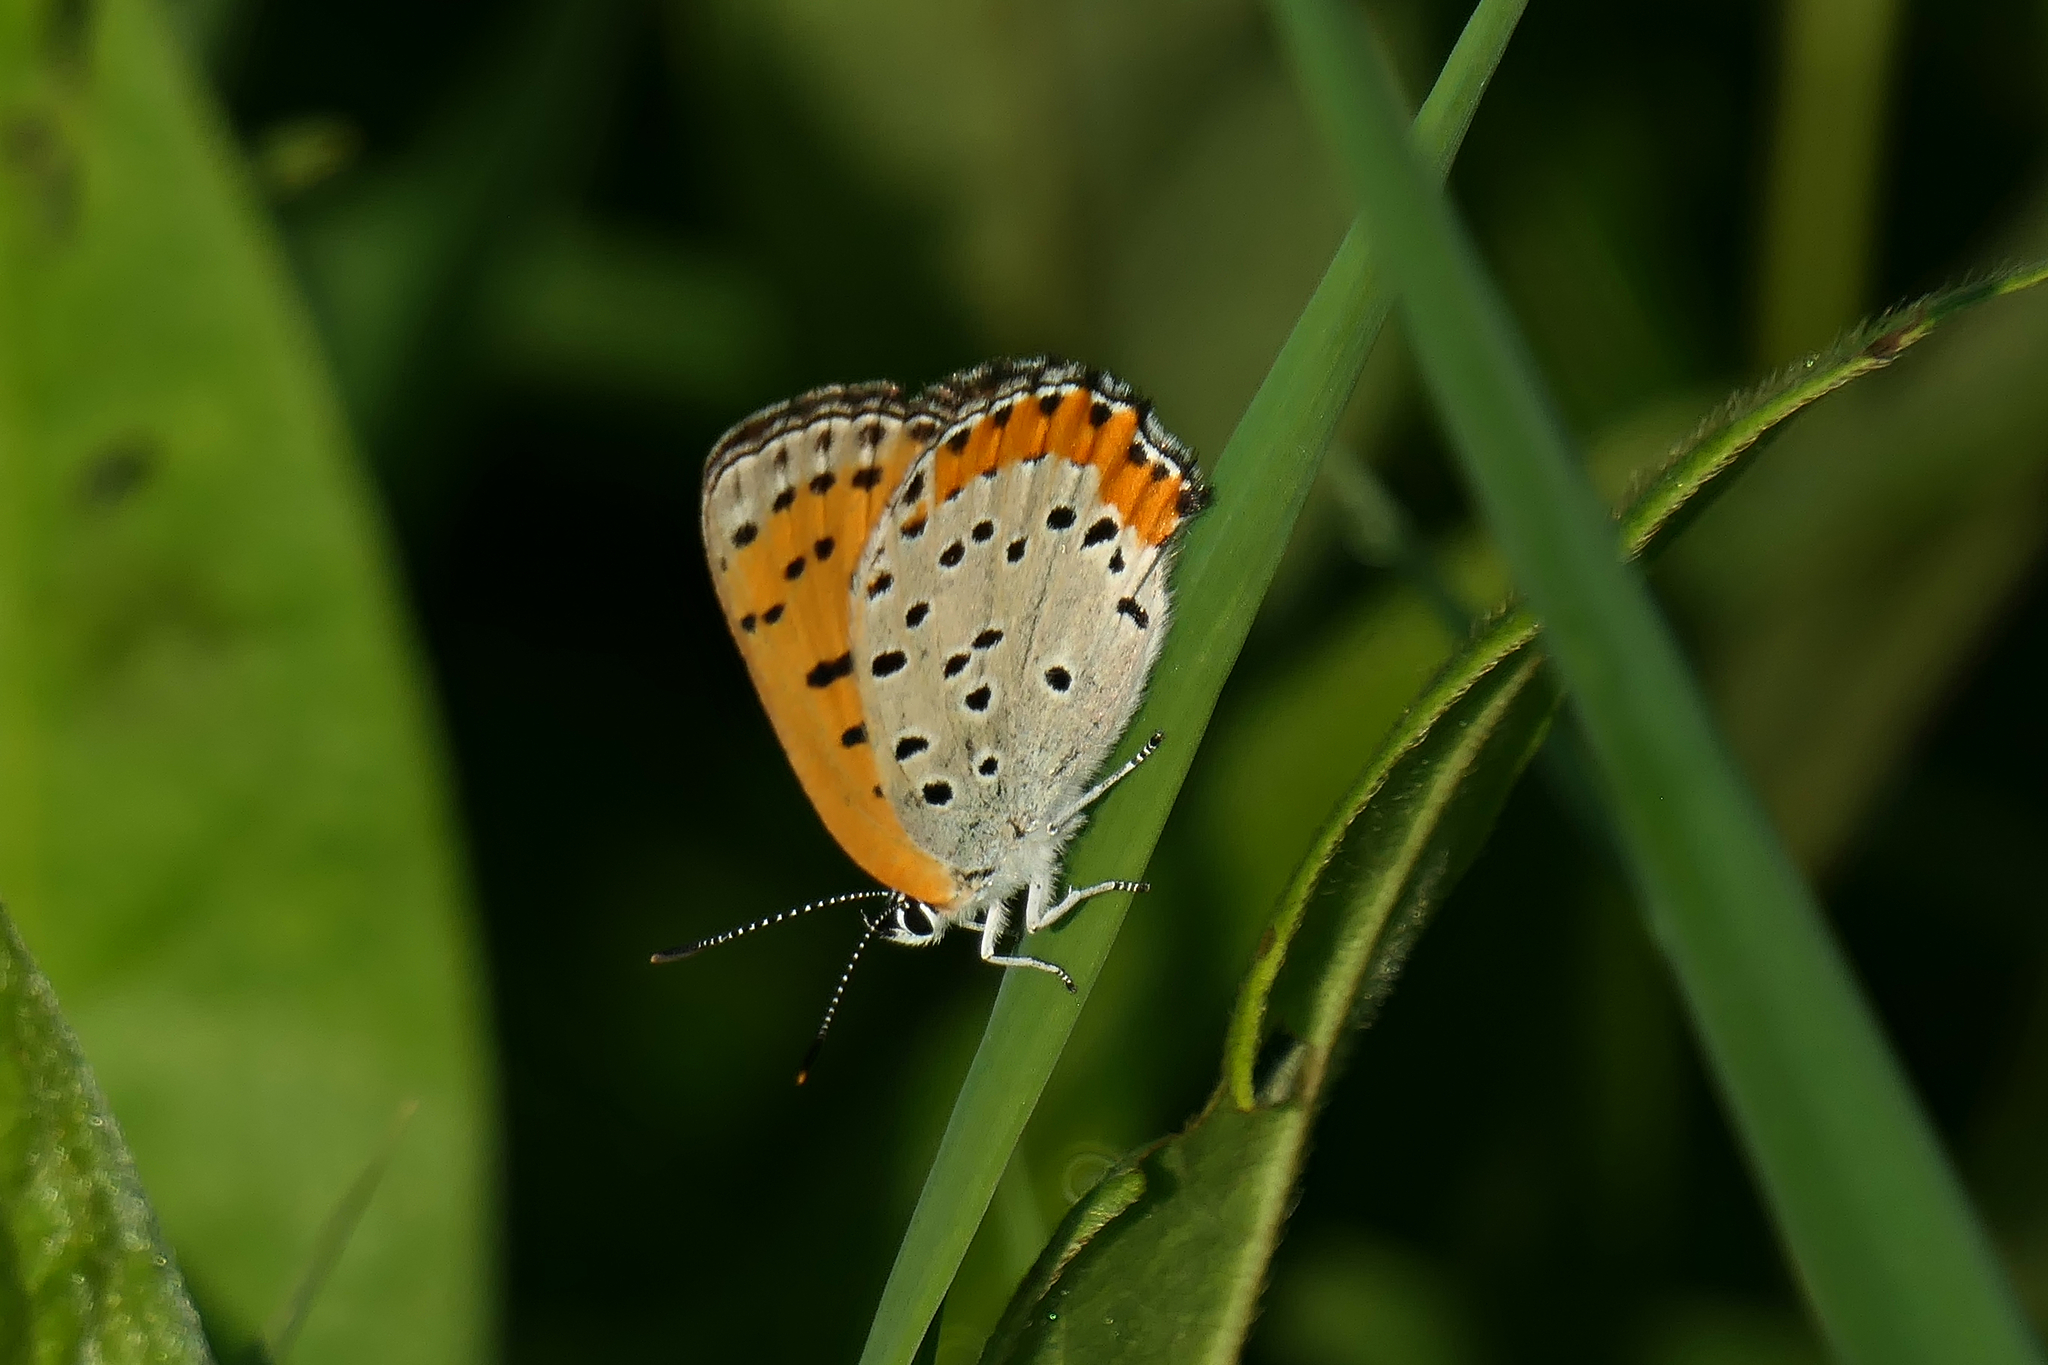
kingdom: Animalia
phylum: Arthropoda
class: Insecta
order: Lepidoptera
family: Lycaenidae
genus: Tharsalea
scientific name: Tharsalea hyllus
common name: Bronze copper
